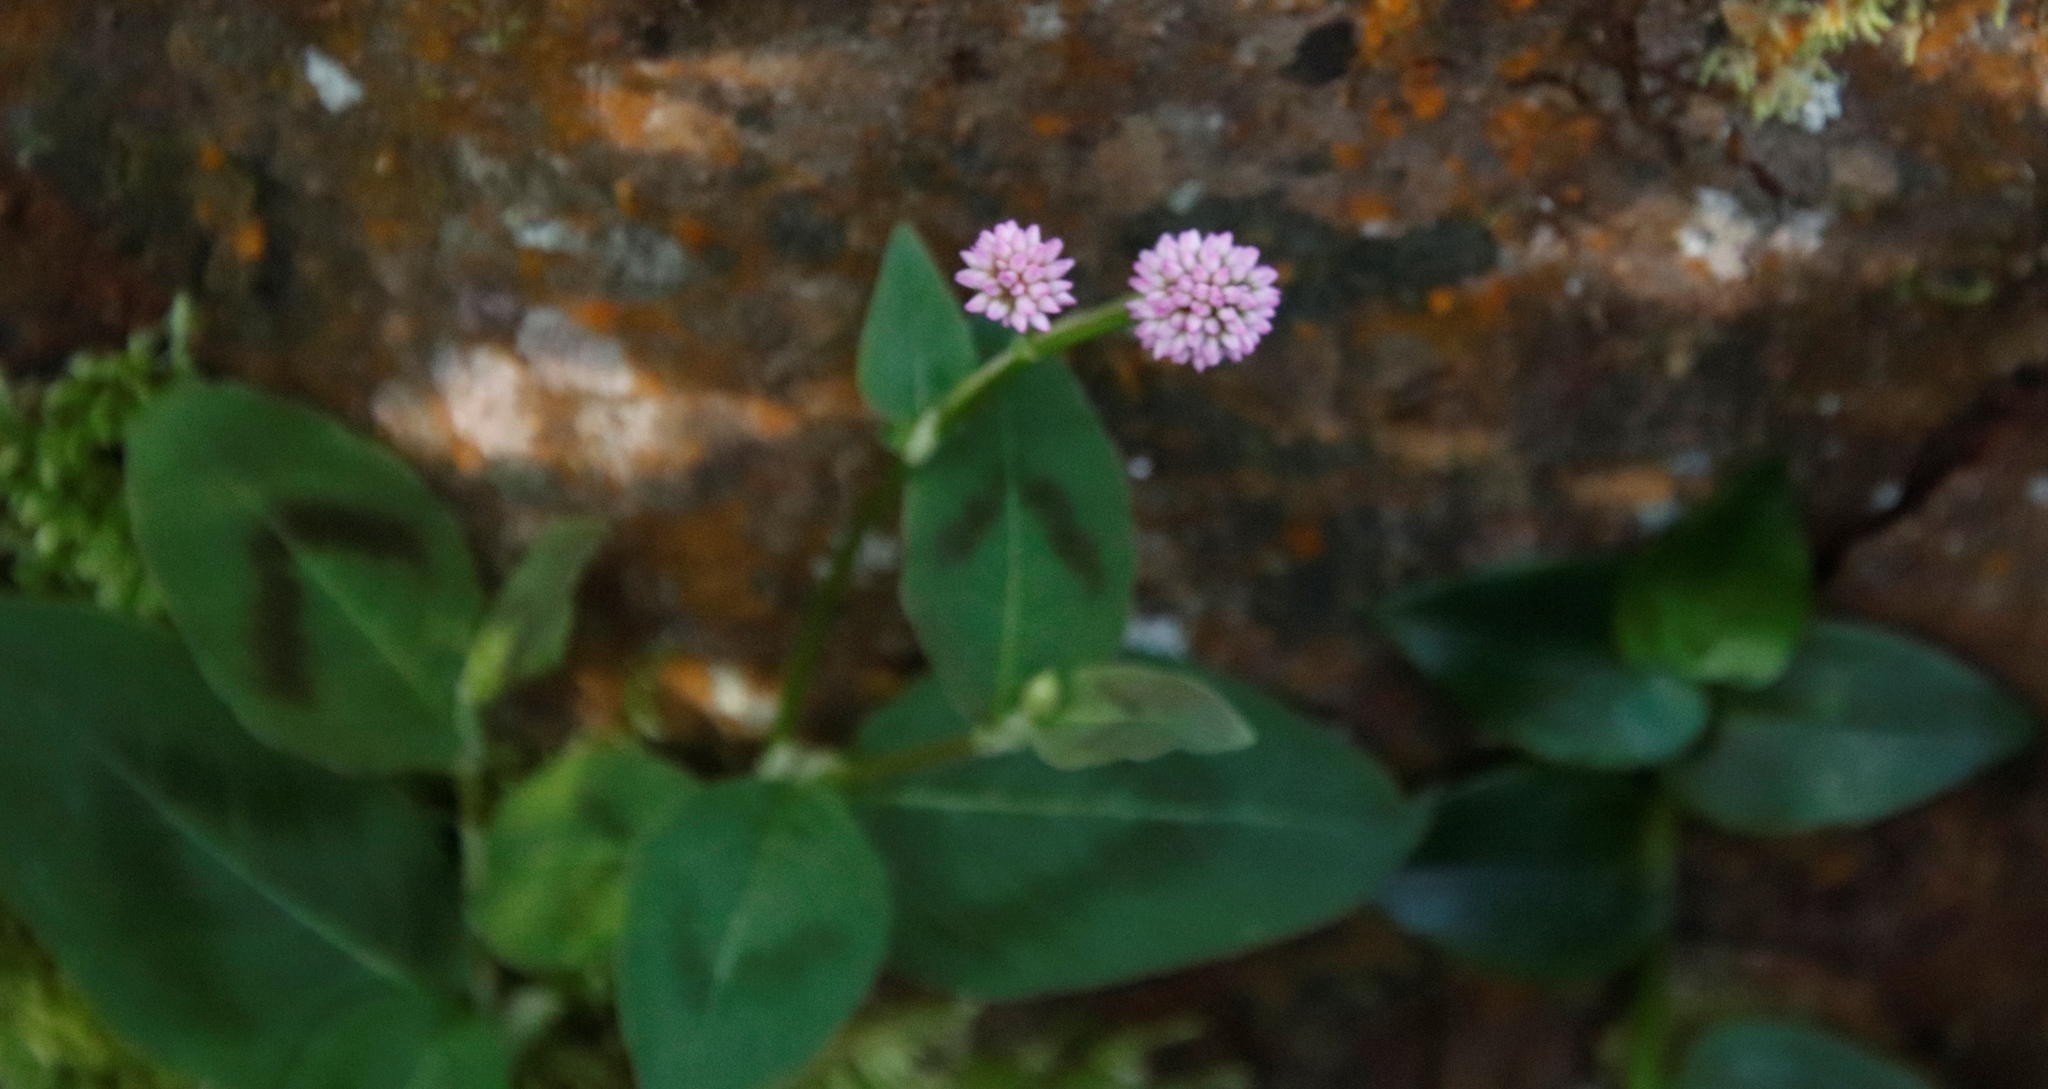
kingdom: Plantae
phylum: Tracheophyta
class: Magnoliopsida
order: Caryophyllales
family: Polygonaceae
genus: Persicaria
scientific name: Persicaria capitata
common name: Pinkhead smartweed
